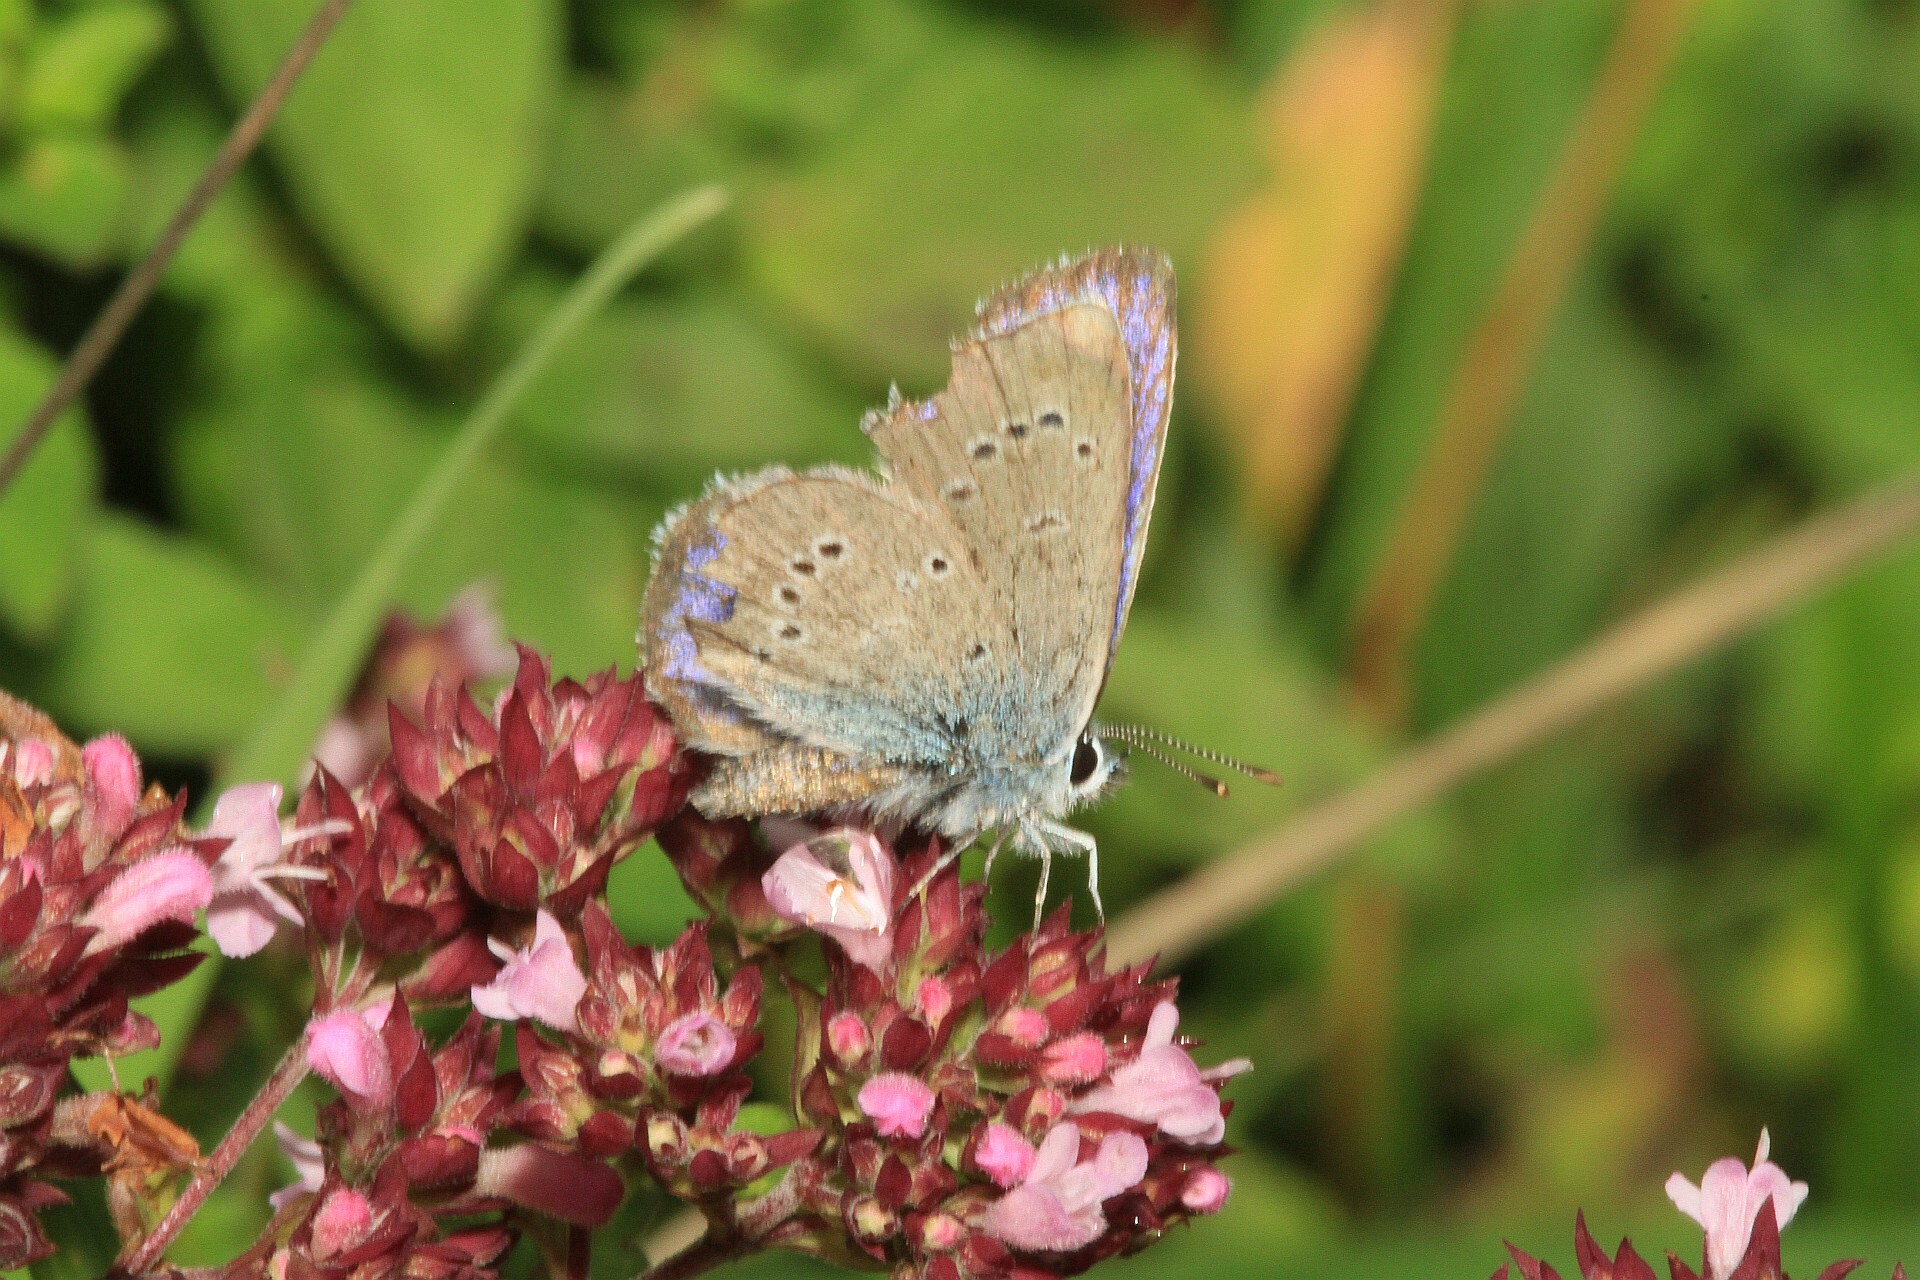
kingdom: Animalia
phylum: Arthropoda
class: Insecta
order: Lepidoptera
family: Lycaenidae
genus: Cyaniris
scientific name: Cyaniris semiargus
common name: Mazarine blue
